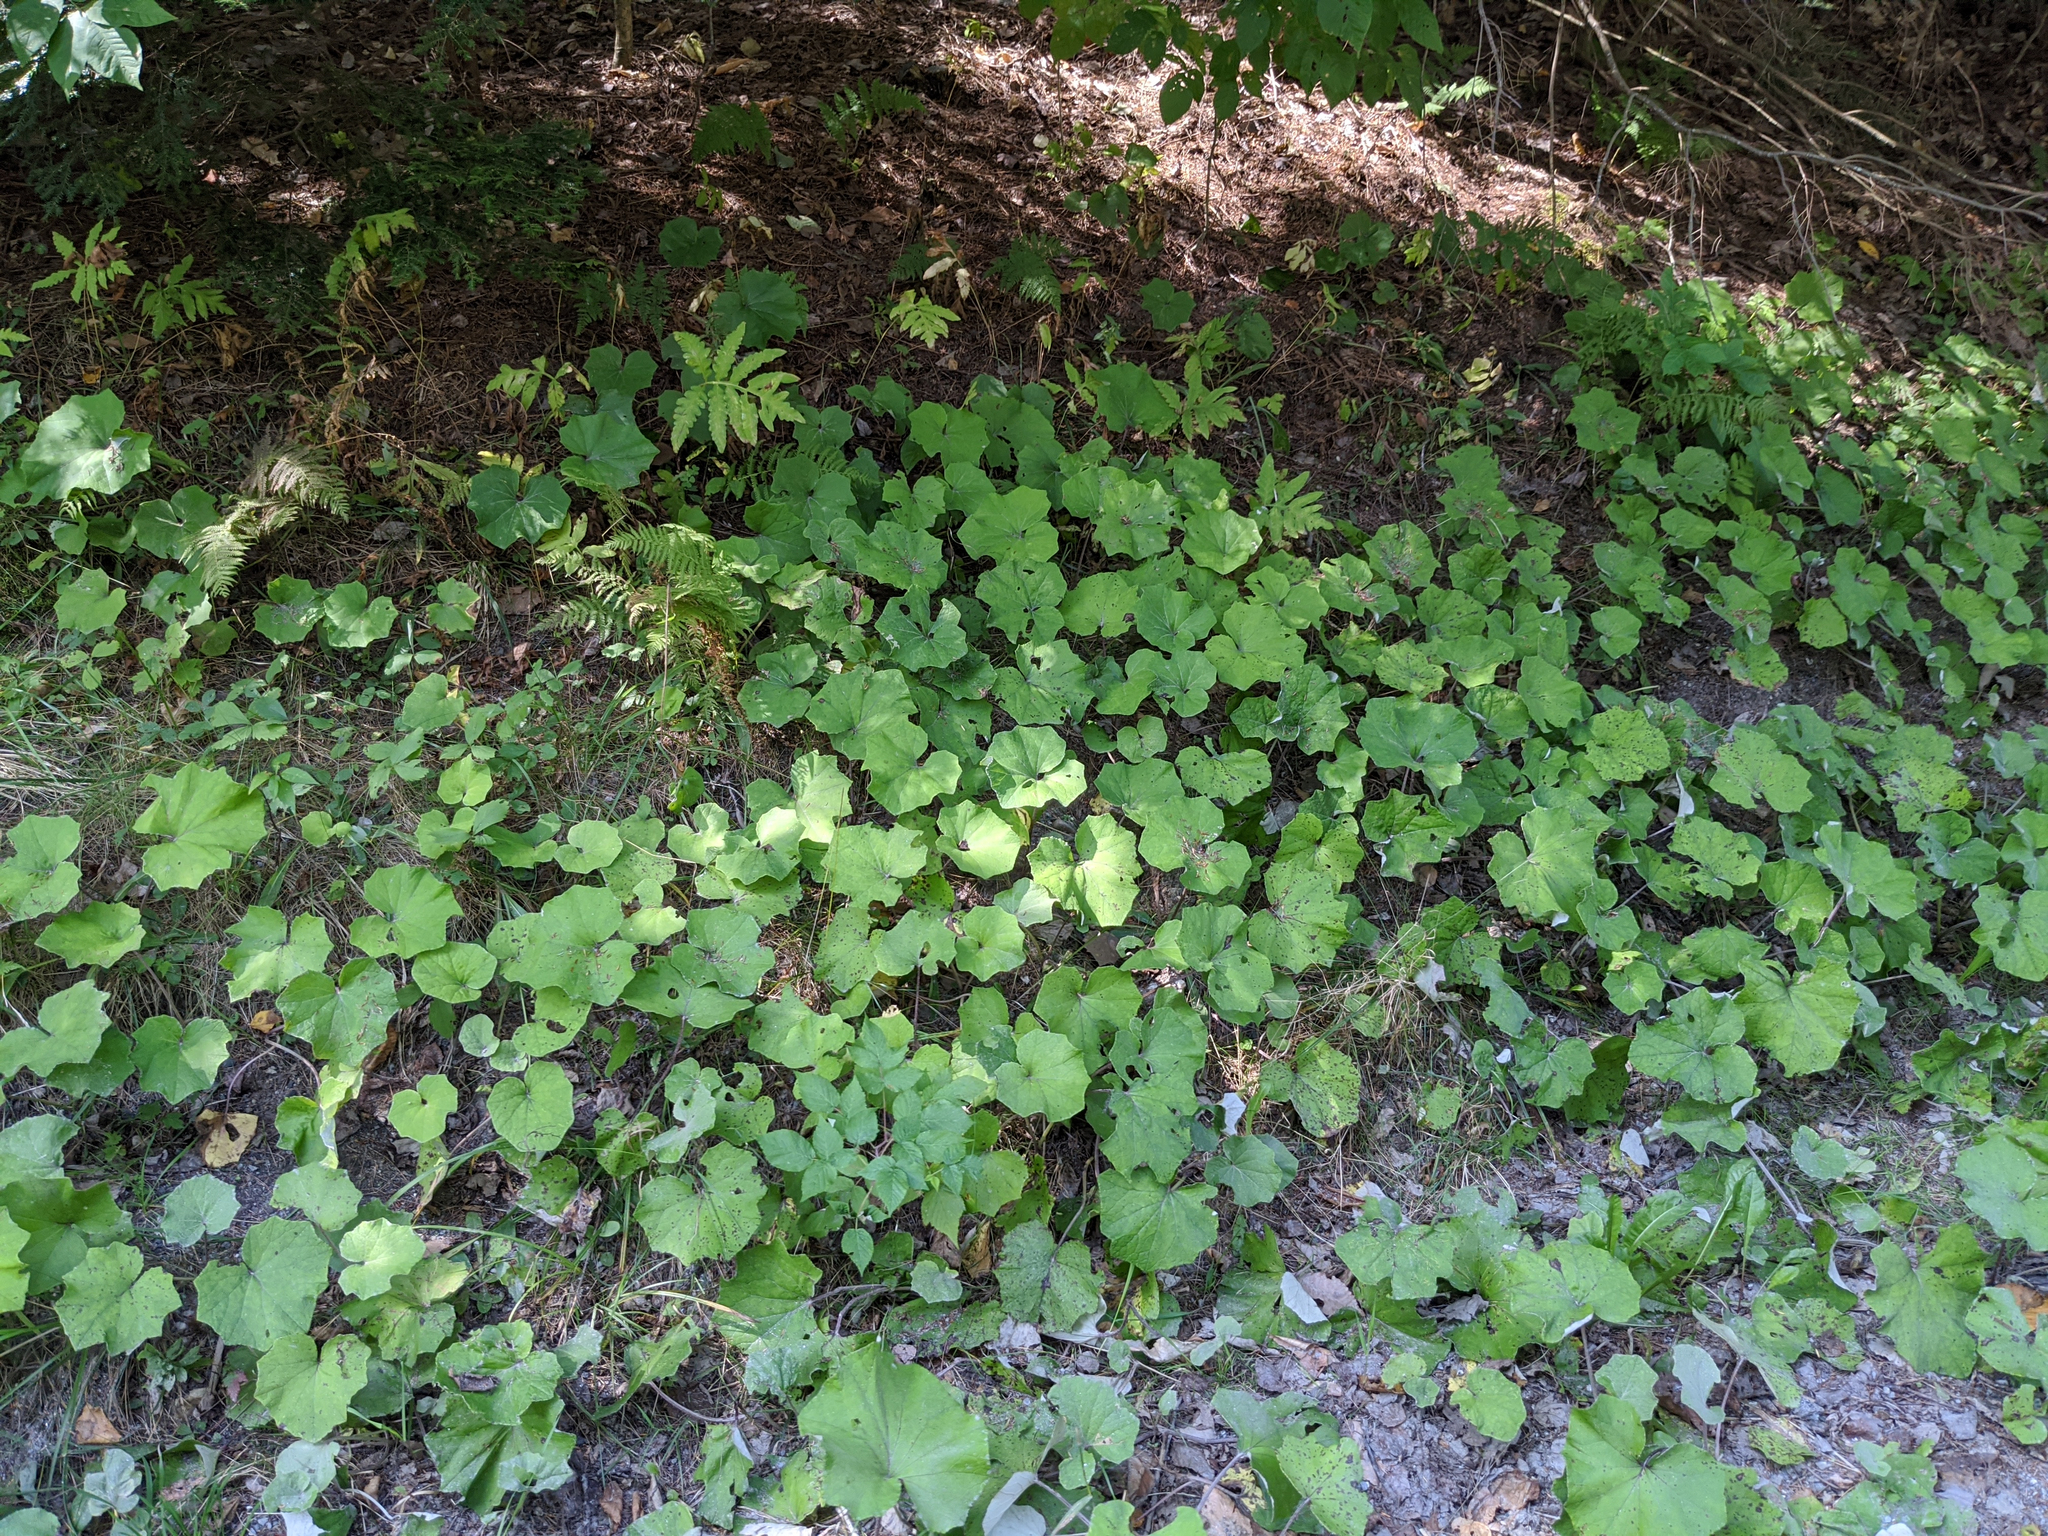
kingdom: Plantae
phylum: Tracheophyta
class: Magnoliopsida
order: Asterales
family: Asteraceae
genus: Tussilago
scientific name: Tussilago farfara
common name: Coltsfoot
